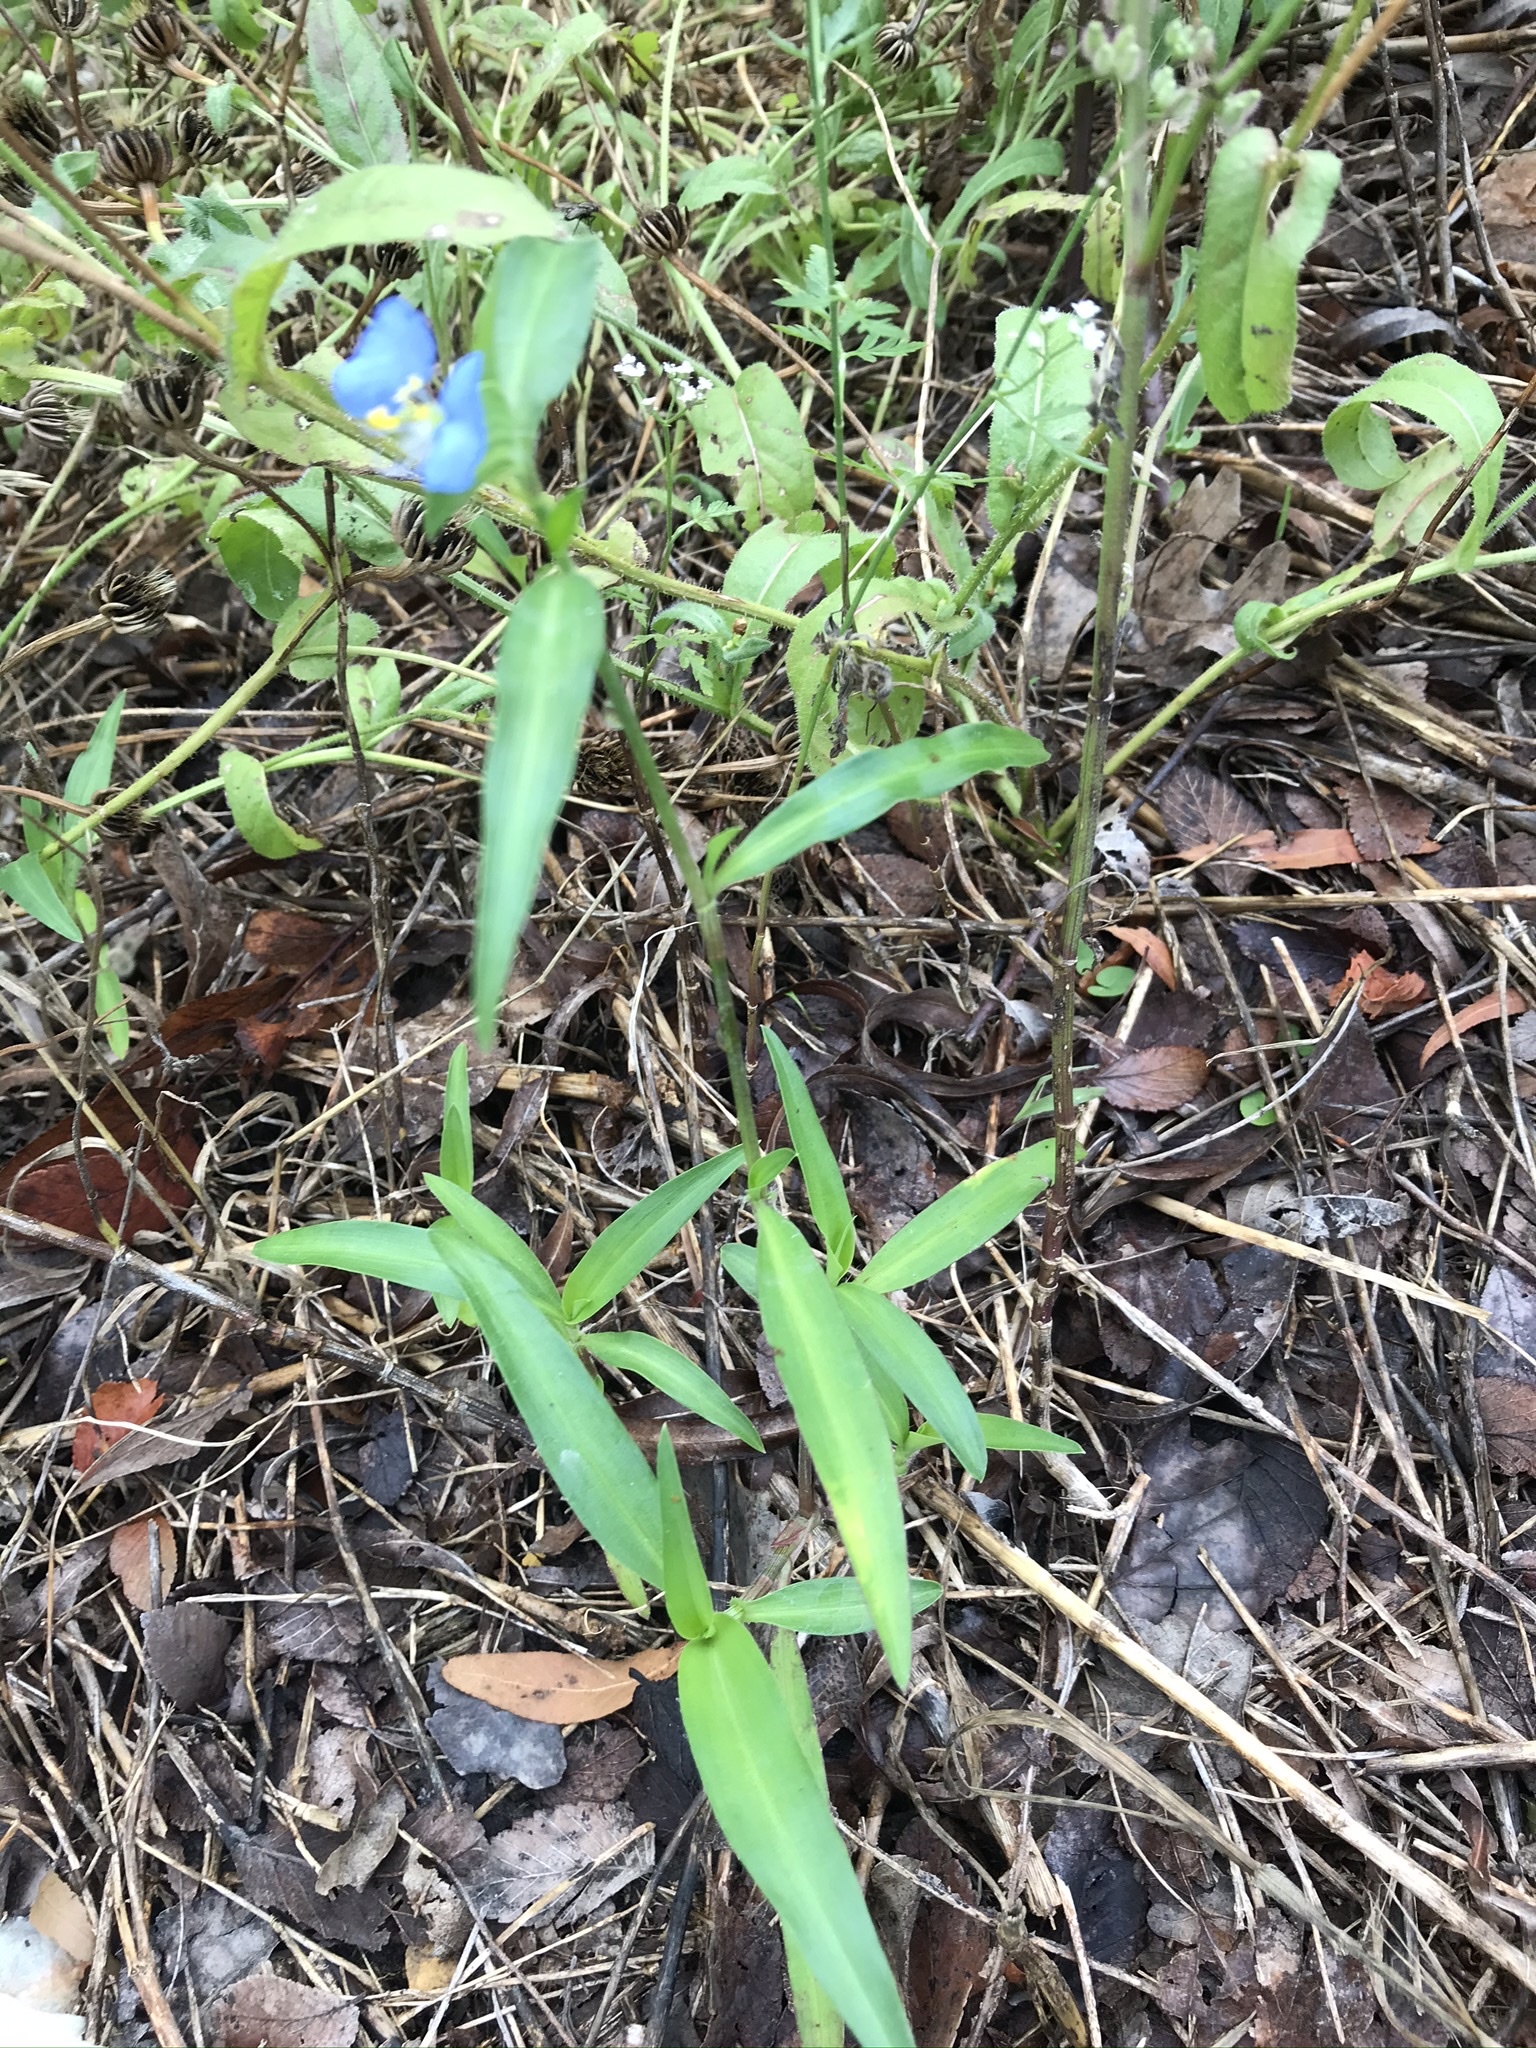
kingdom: Plantae
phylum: Tracheophyta
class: Liliopsida
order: Commelinales
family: Commelinaceae
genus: Commelina
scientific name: Commelina erecta
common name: Blousel blommetjie
